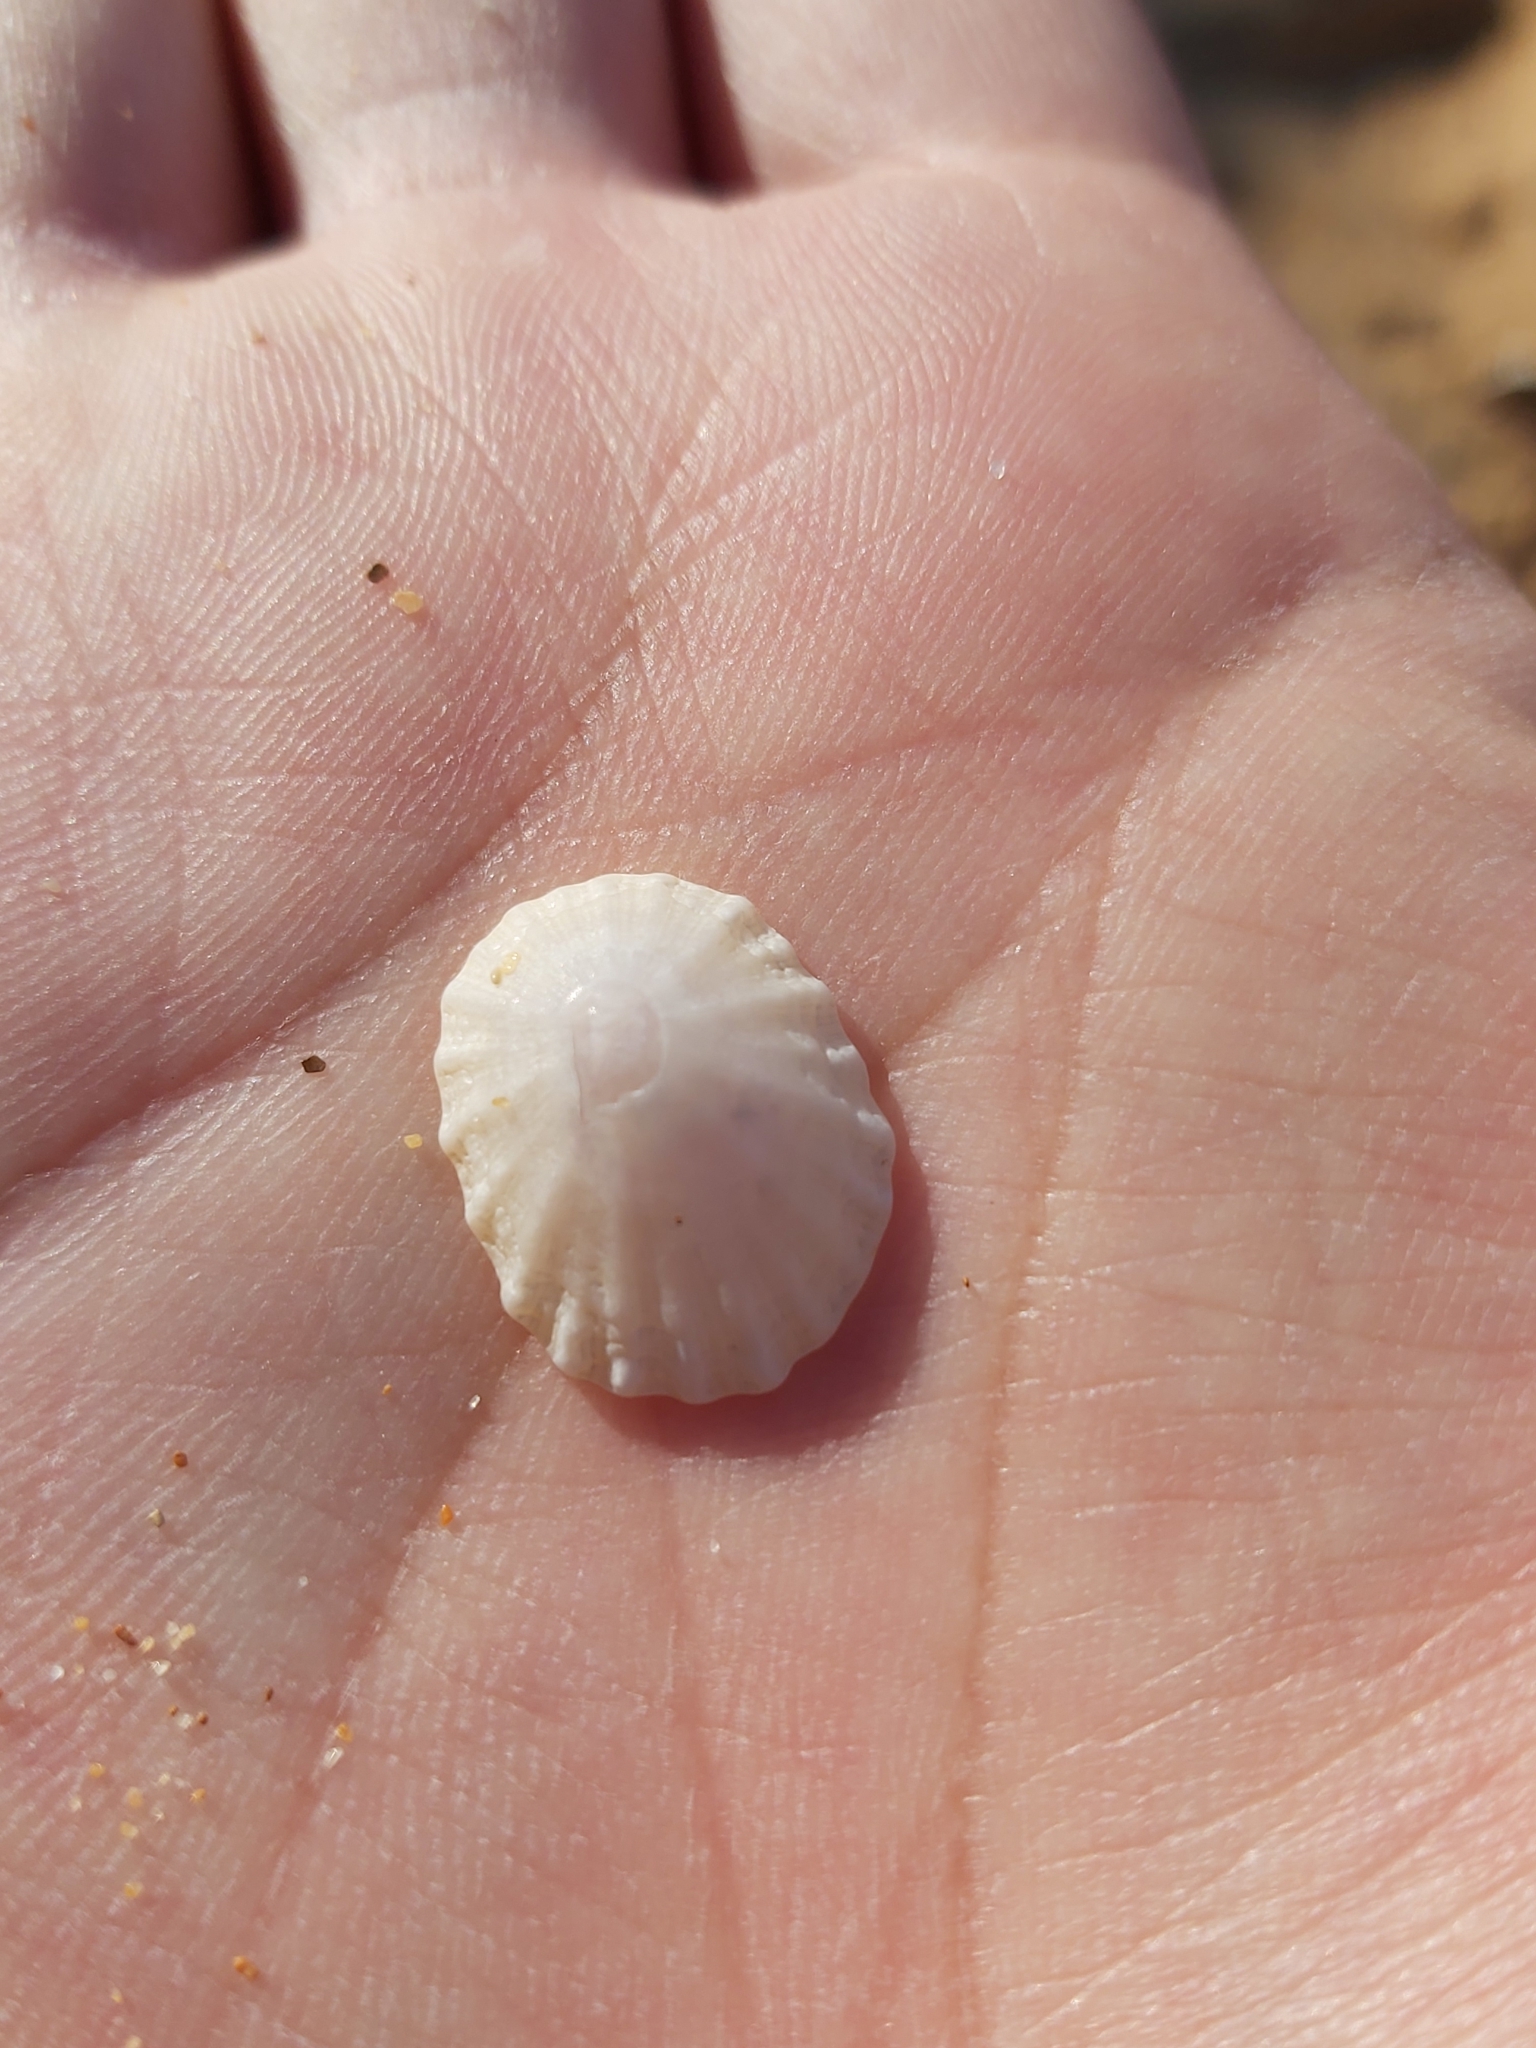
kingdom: Animalia
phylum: Mollusca
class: Gastropoda
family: Patellidae
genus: Scutellastra
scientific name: Scutellastra peronii
